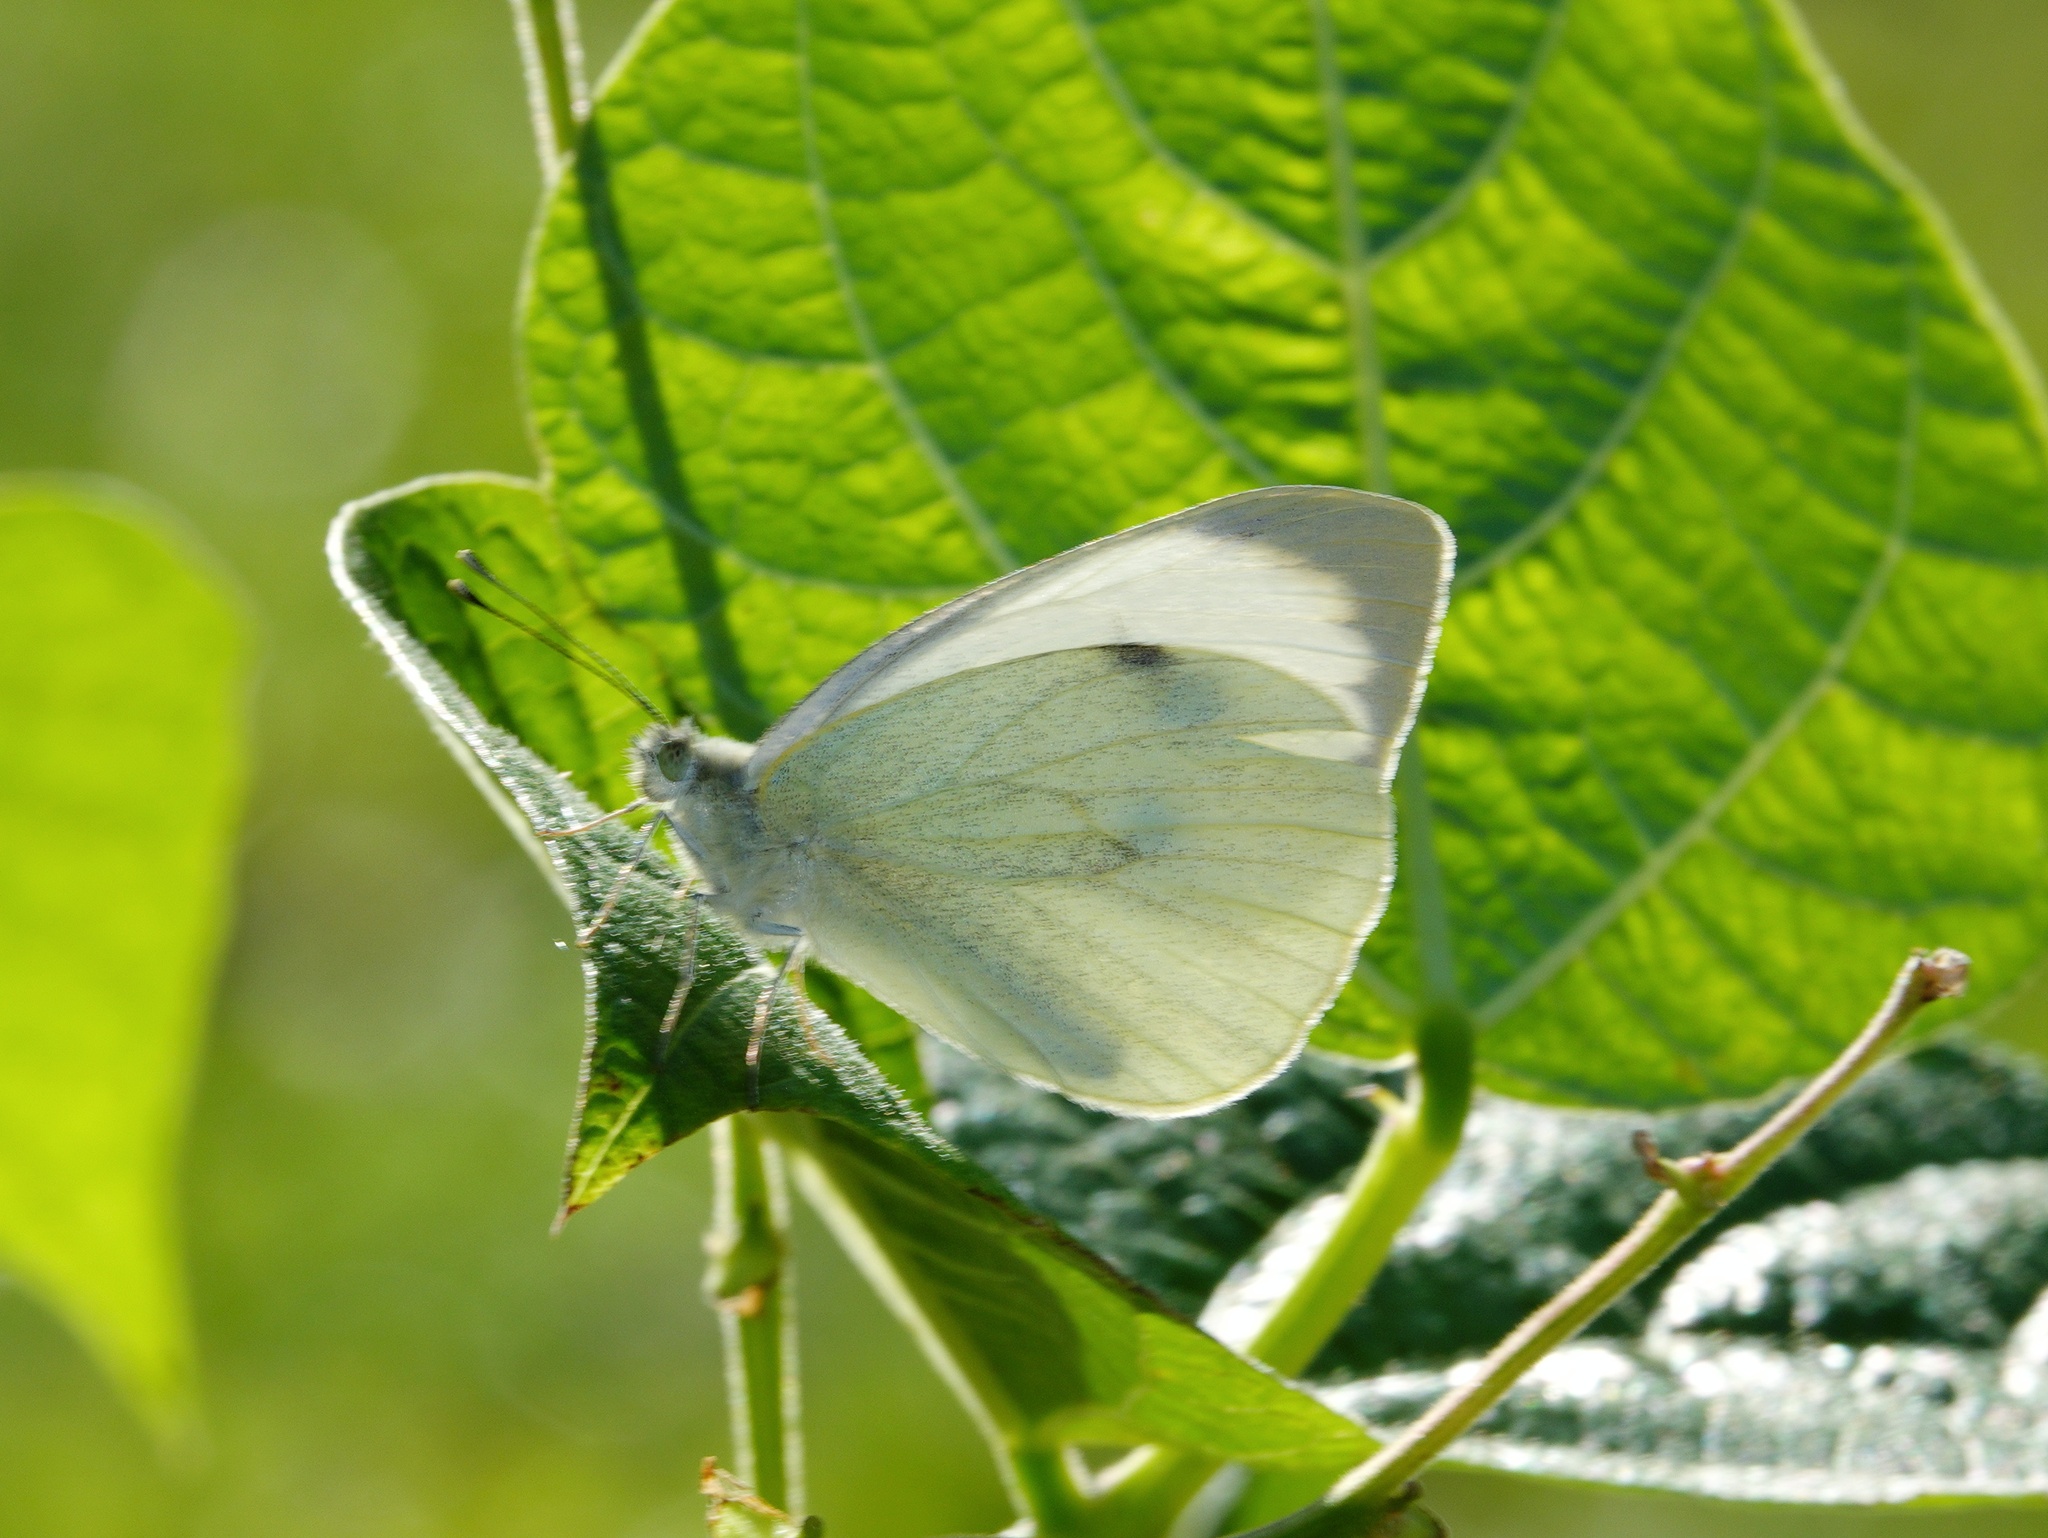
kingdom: Animalia
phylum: Arthropoda
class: Insecta
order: Lepidoptera
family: Pieridae
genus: Pieris
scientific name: Pieris brassicae
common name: Large white
